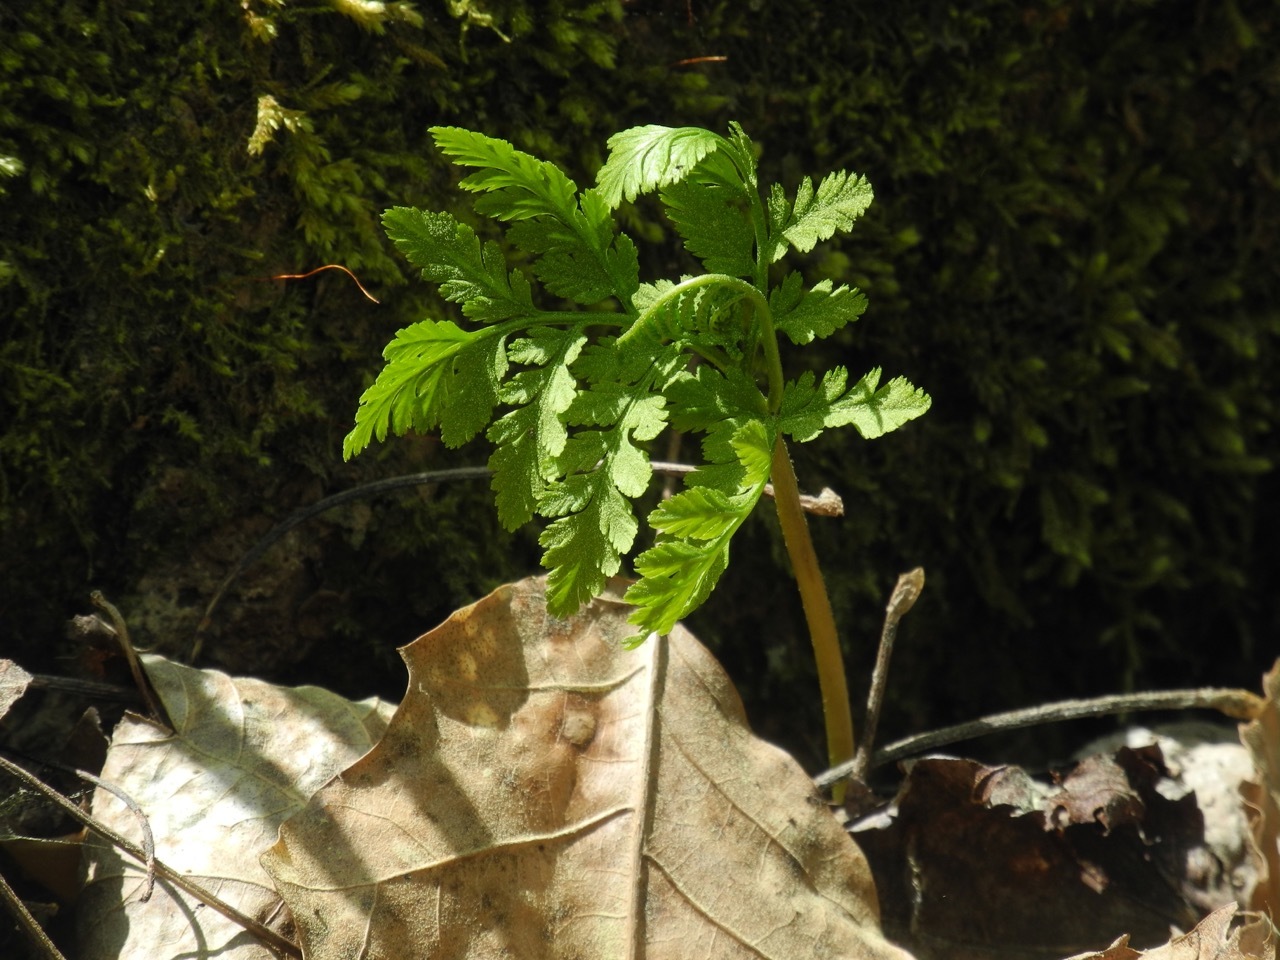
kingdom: Plantae
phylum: Tracheophyta
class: Polypodiopsida
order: Ophioglossales
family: Ophioglossaceae
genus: Botrypus
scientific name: Botrypus virginianus
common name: Common grapefern
